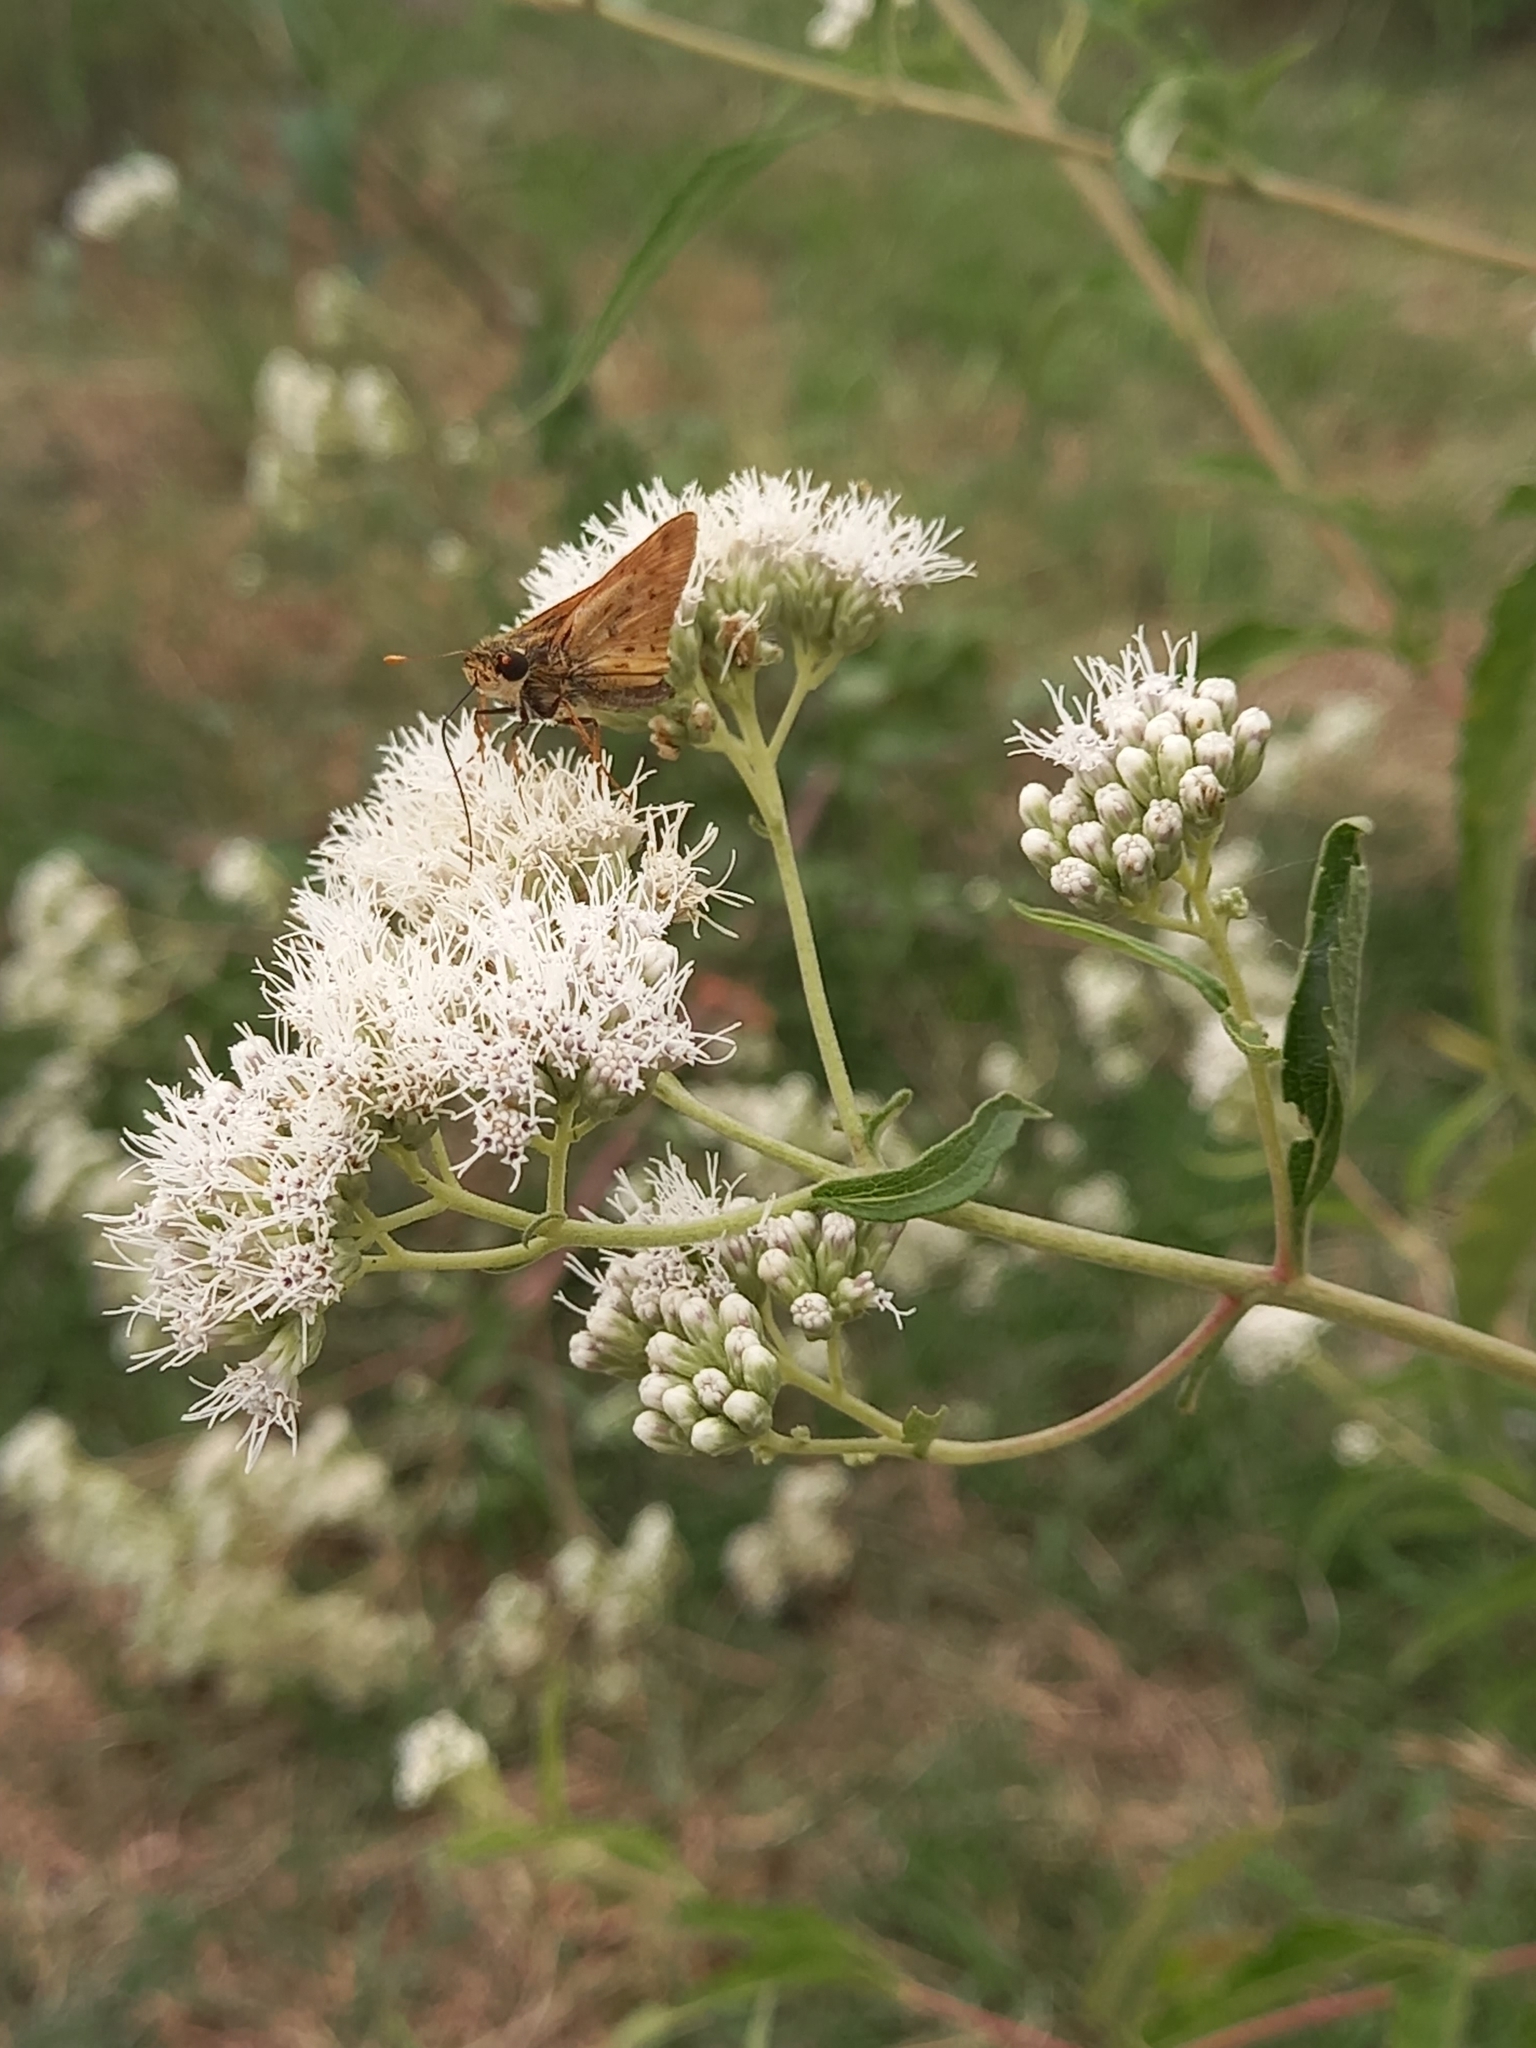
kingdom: Animalia
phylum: Arthropoda
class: Insecta
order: Lepidoptera
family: Hesperiidae
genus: Hylephila
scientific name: Hylephila phyleus
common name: Fiery skipper
